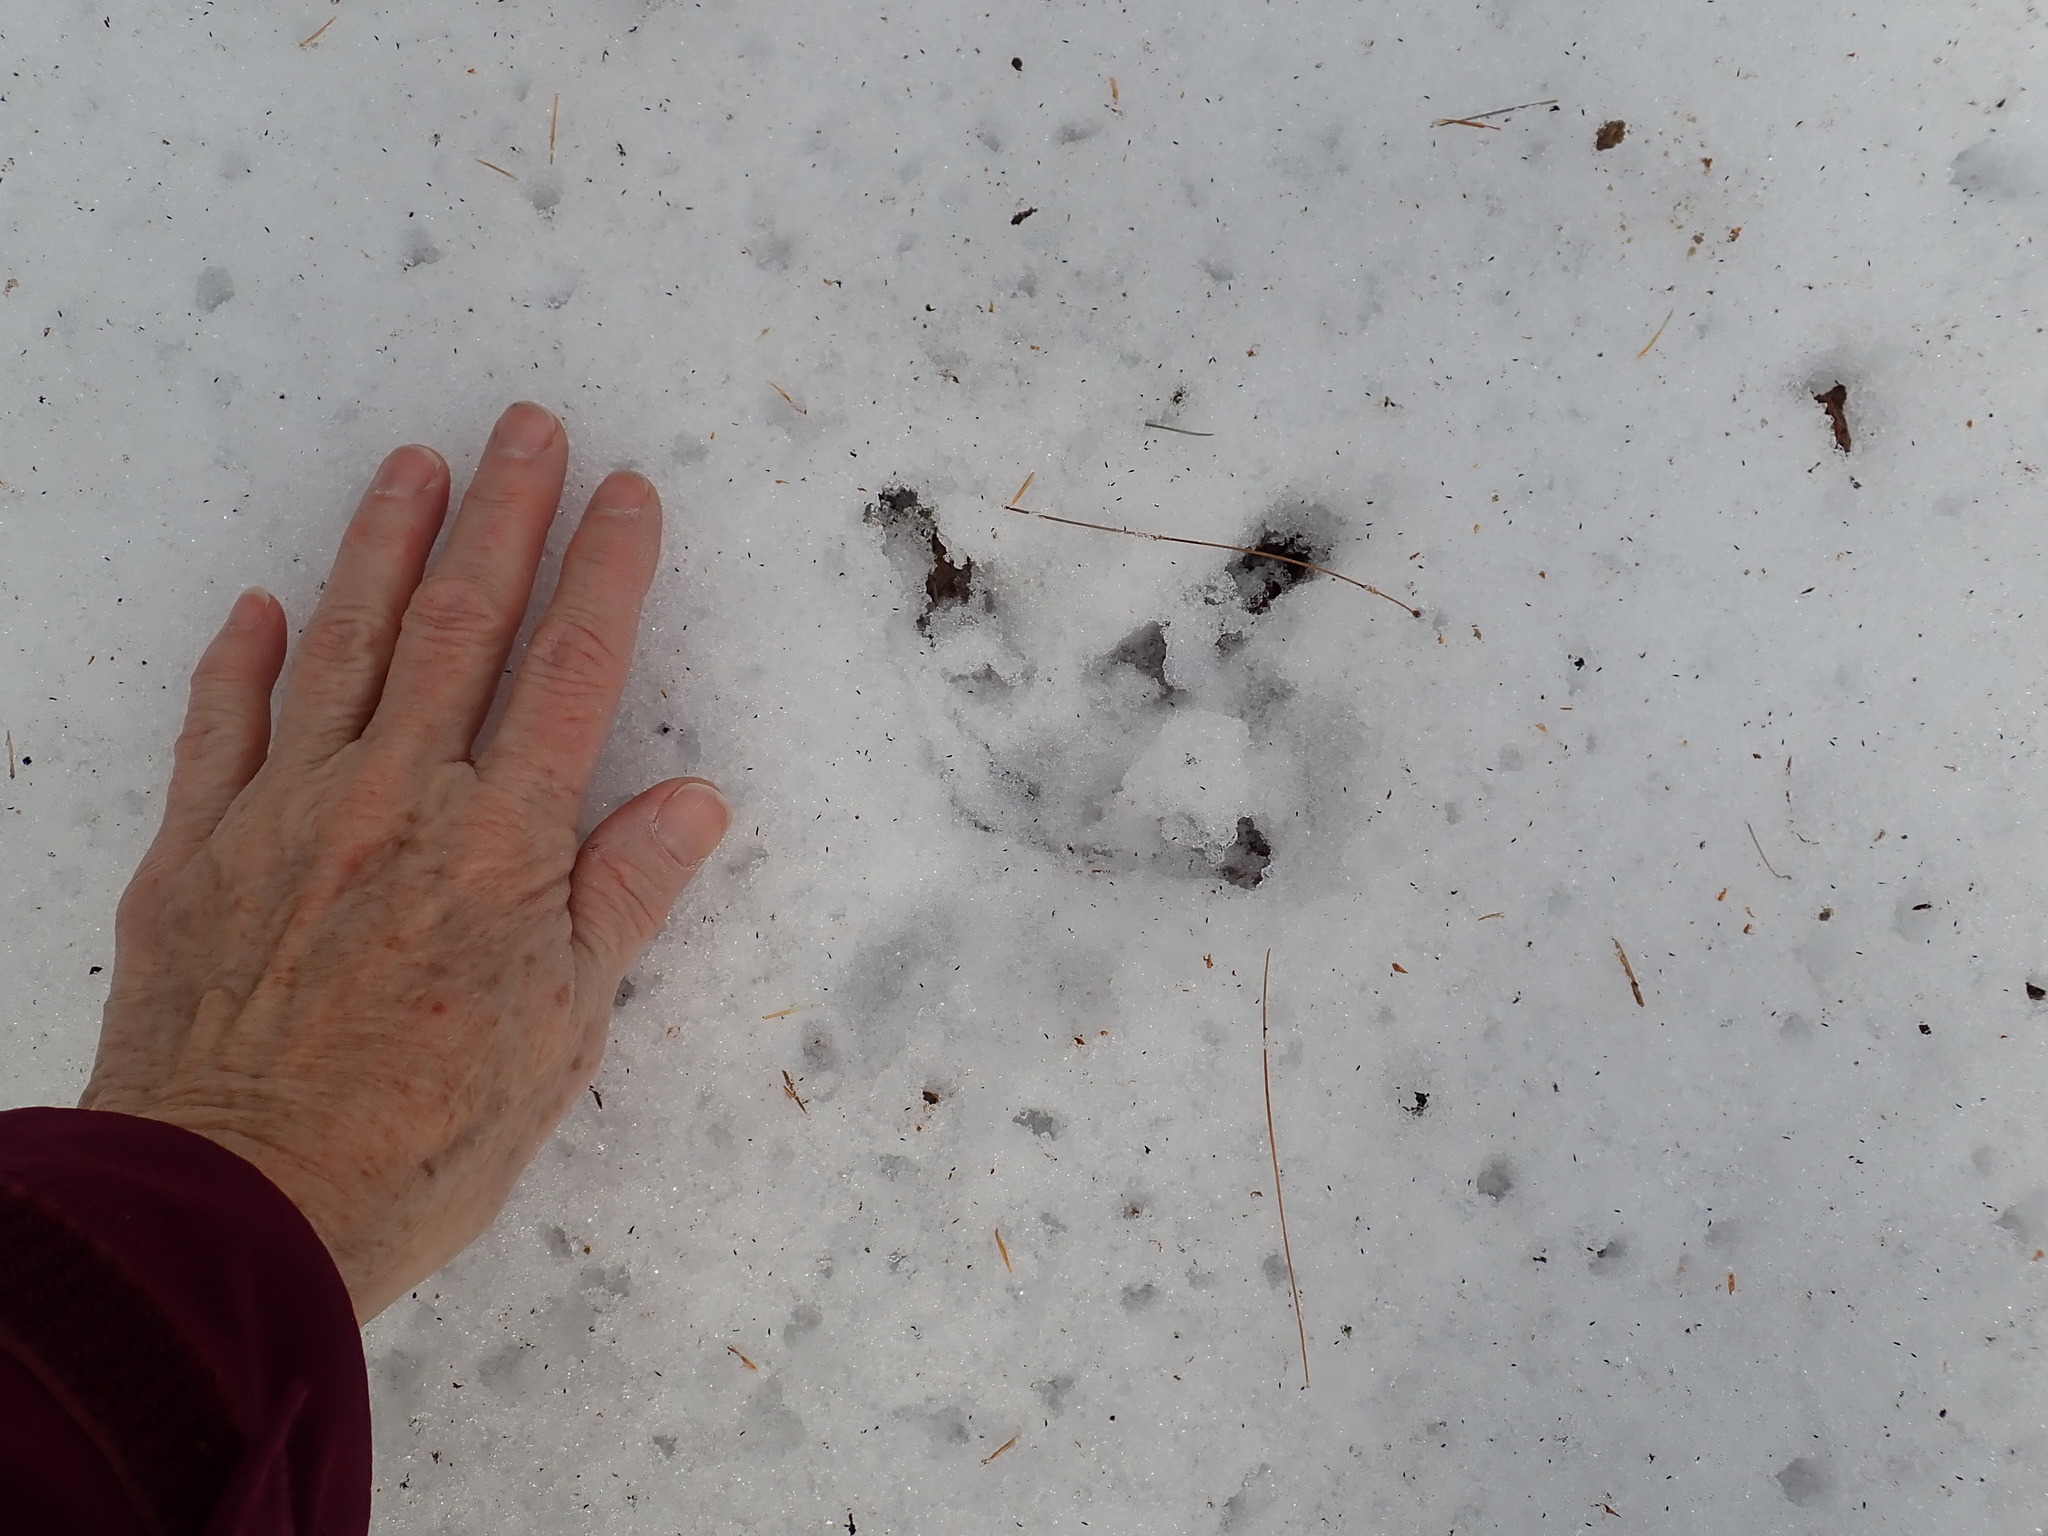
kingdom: Animalia
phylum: Chordata
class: Aves
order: Galliformes
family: Phasianidae
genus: Meleagris
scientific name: Meleagris gallopavo
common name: Wild turkey
